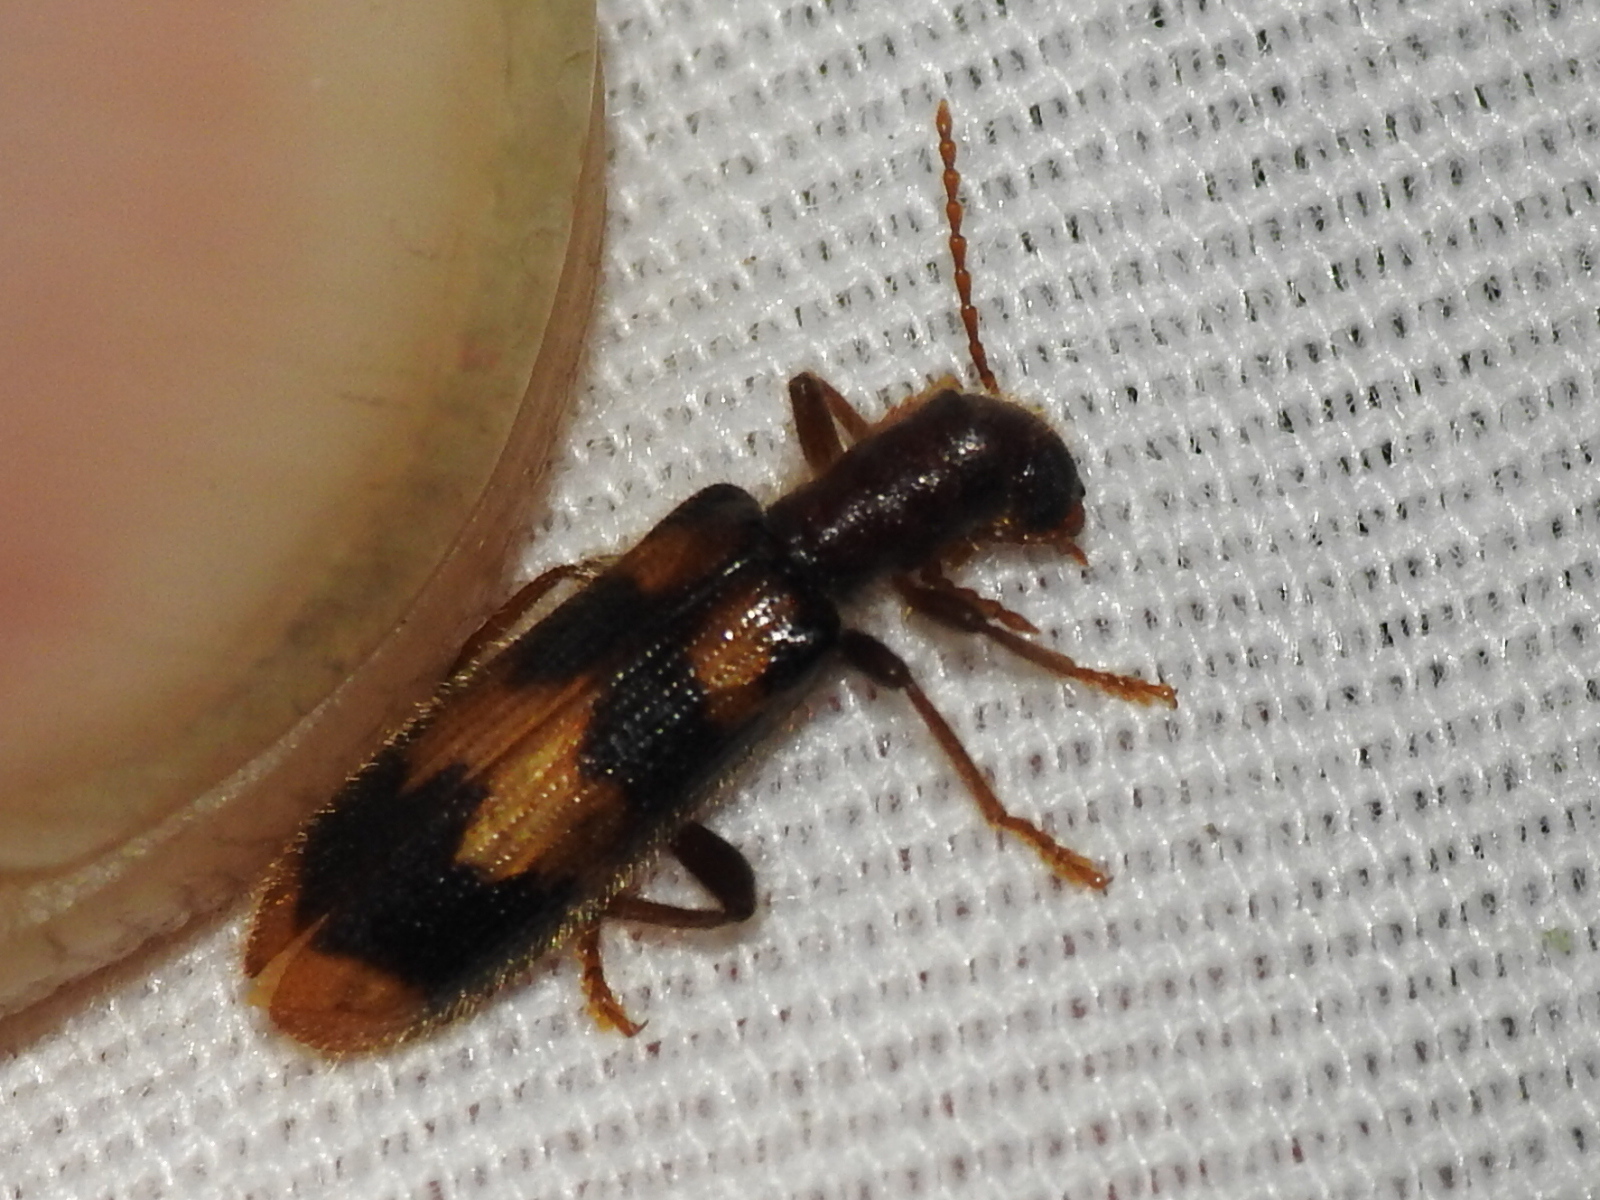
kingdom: Animalia
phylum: Arthropoda
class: Insecta
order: Coleoptera
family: Cleridae
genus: Cymatodera
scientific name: Cymatodera sirpata
